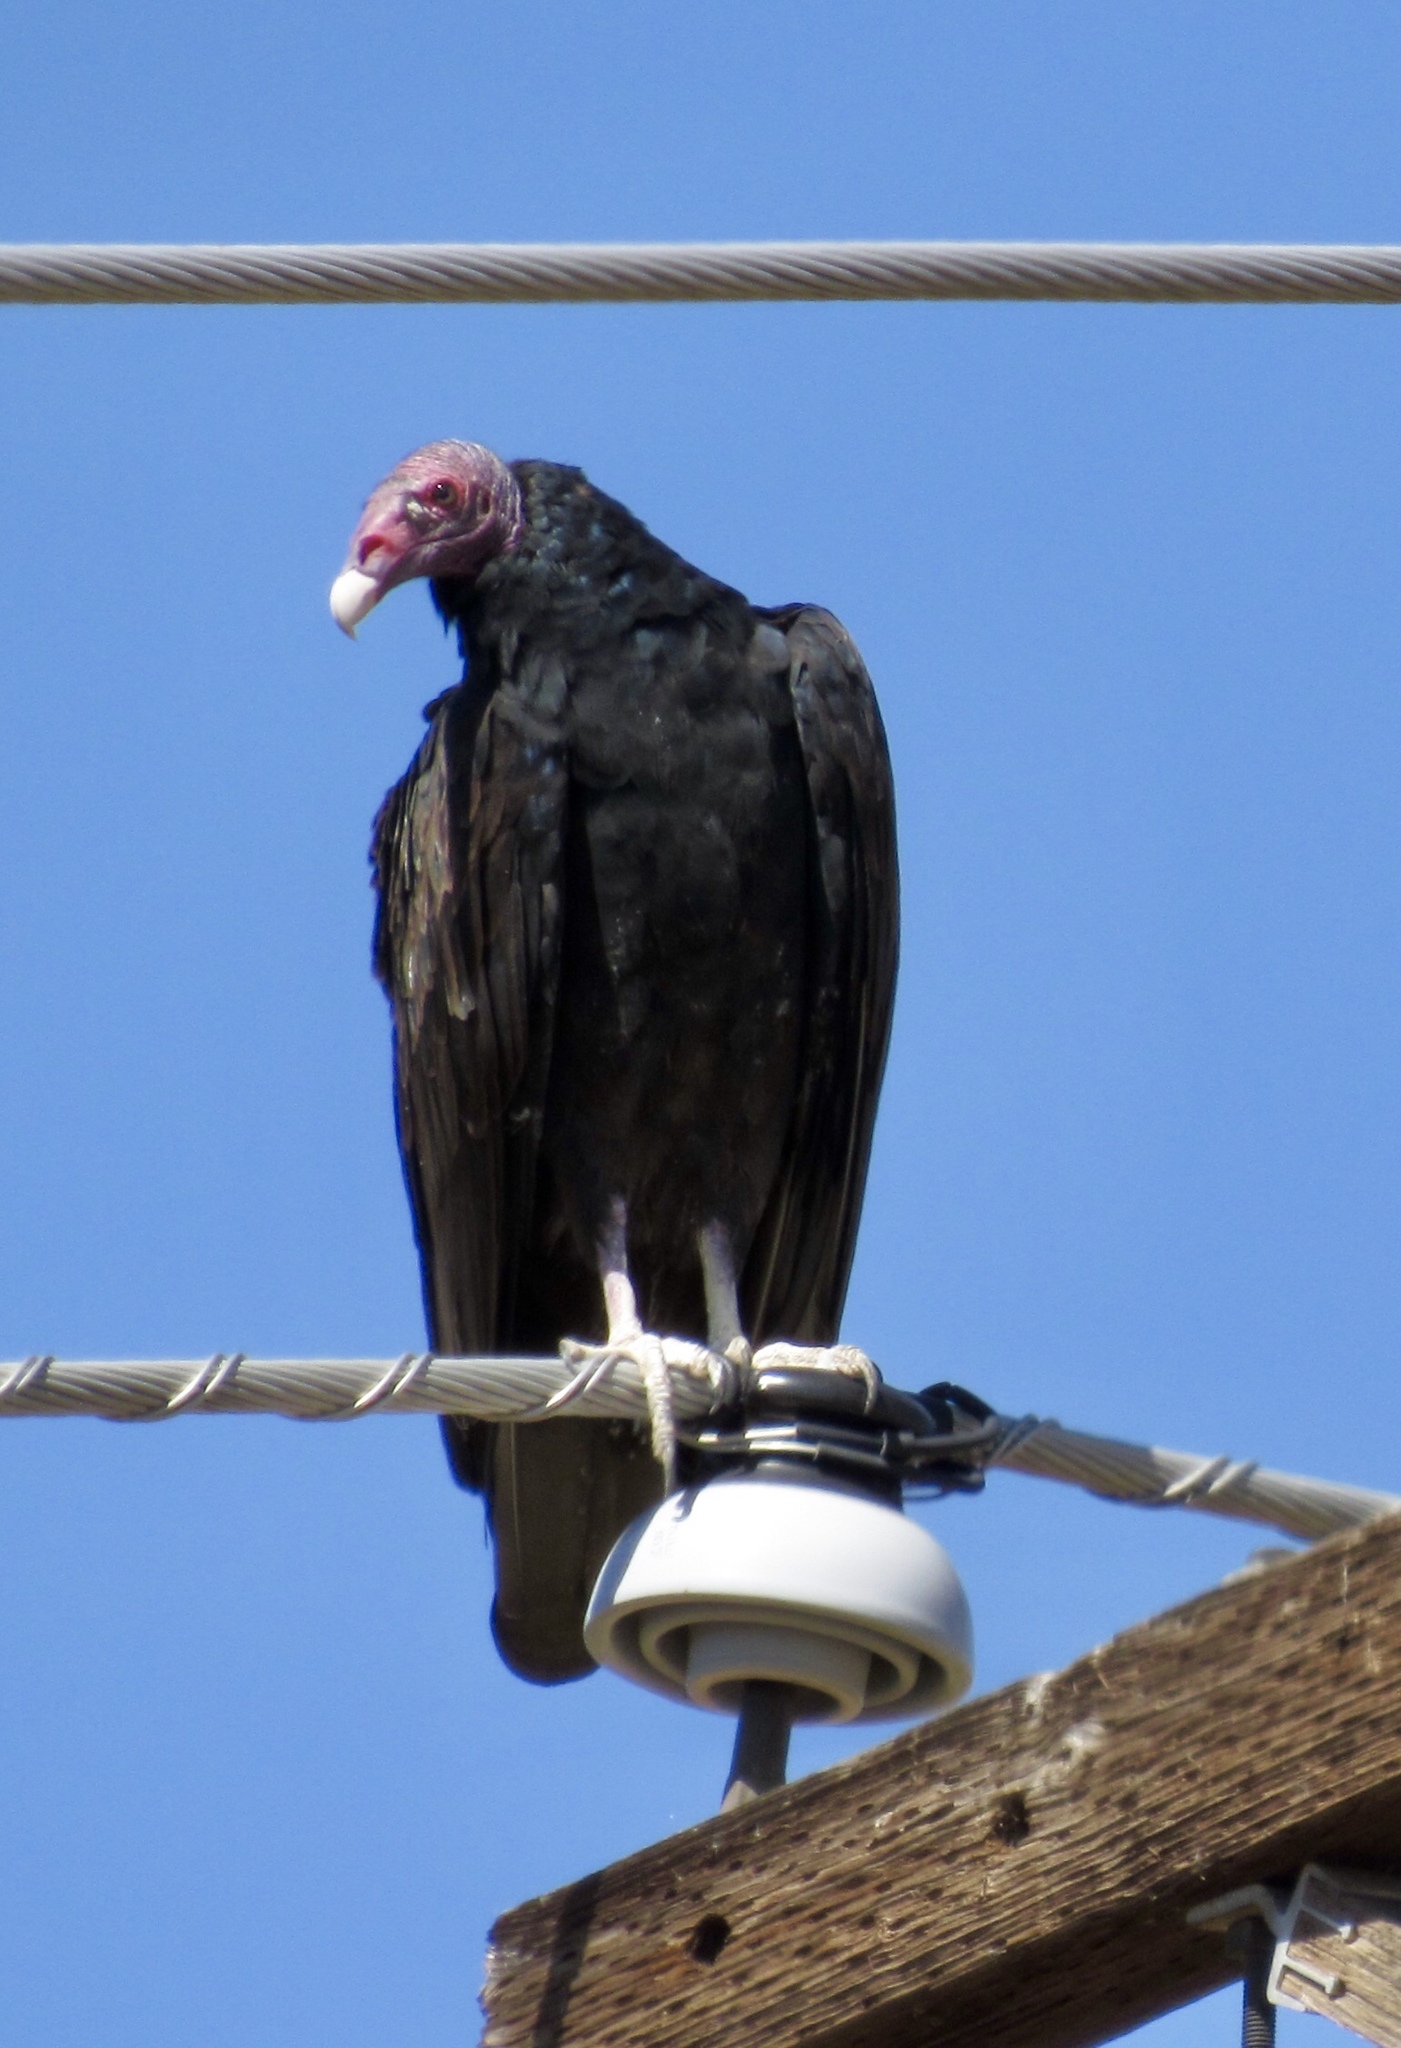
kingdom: Animalia
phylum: Chordata
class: Aves
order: Accipitriformes
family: Cathartidae
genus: Cathartes
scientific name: Cathartes aura
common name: Turkey vulture
